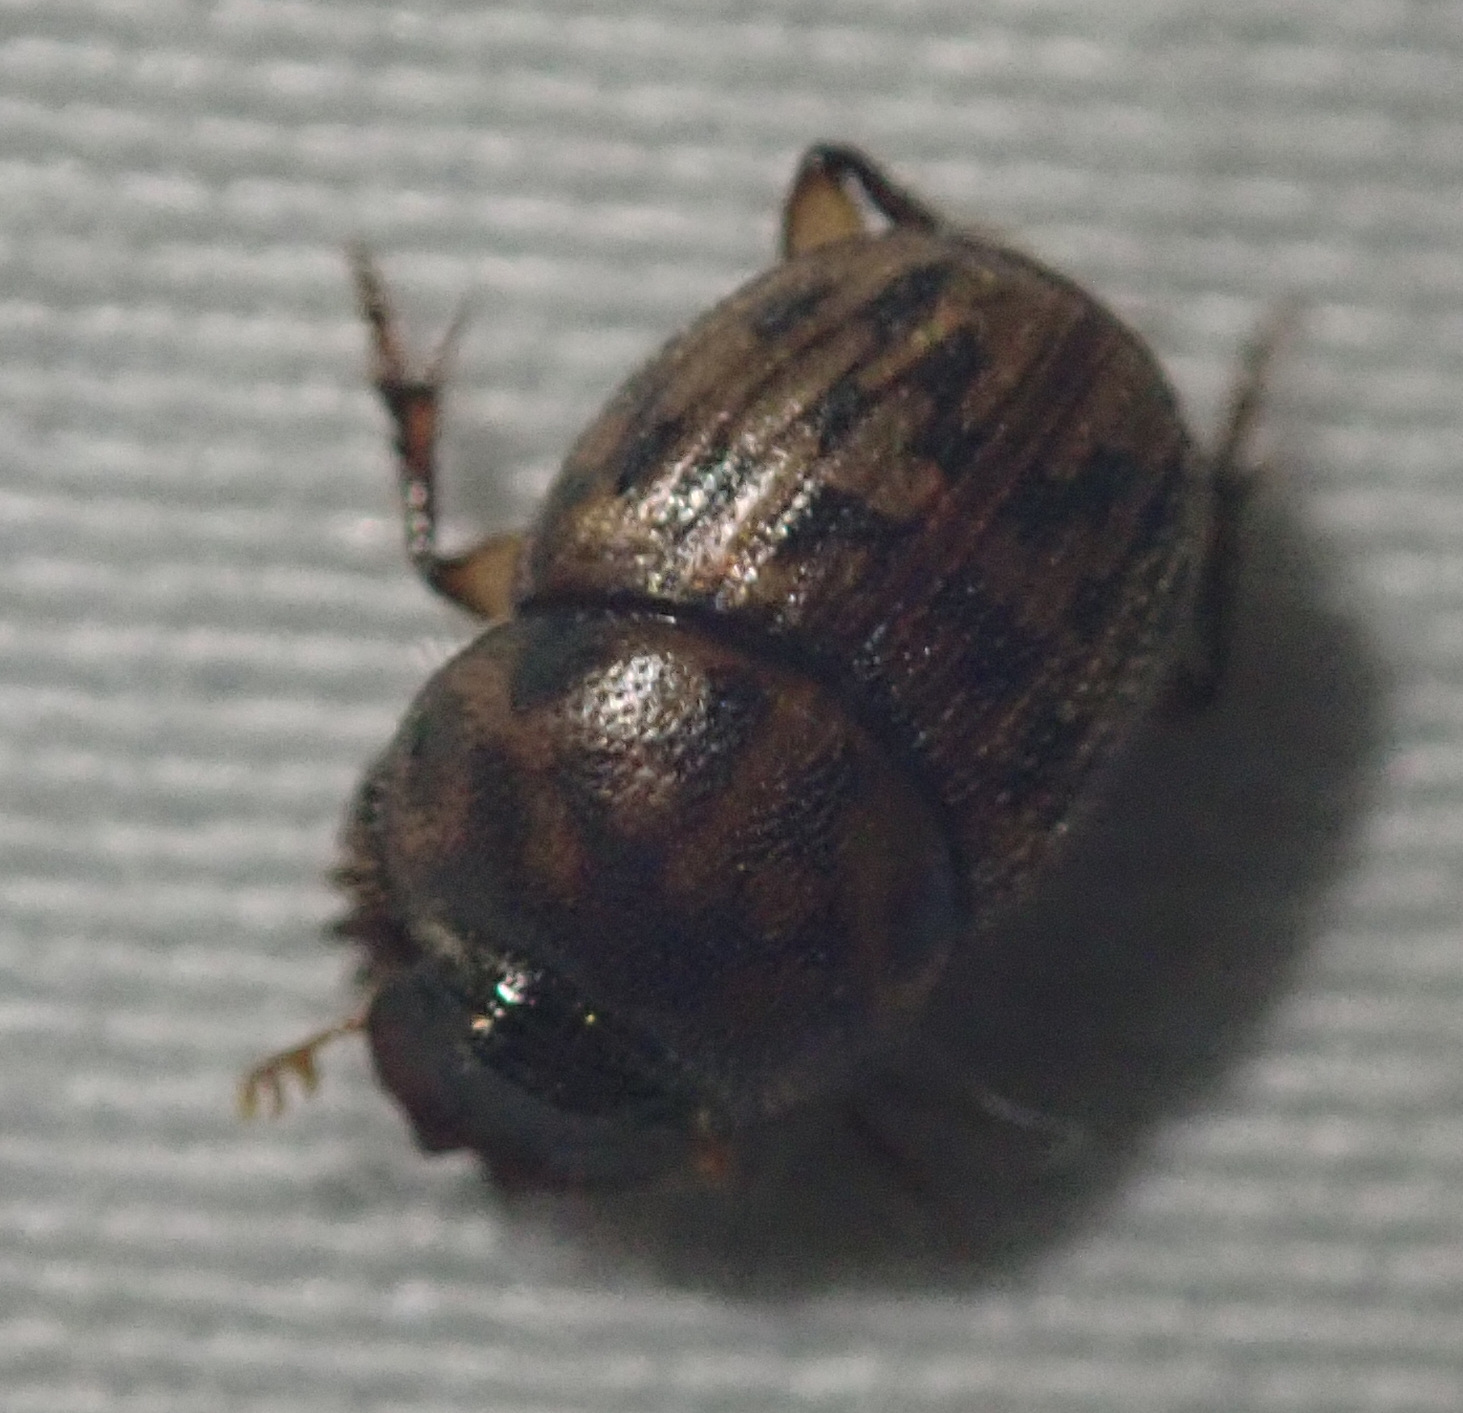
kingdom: Animalia
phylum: Arthropoda
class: Insecta
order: Coleoptera
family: Scarabaeidae
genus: Onthophagus
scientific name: Onthophagus suffusus
